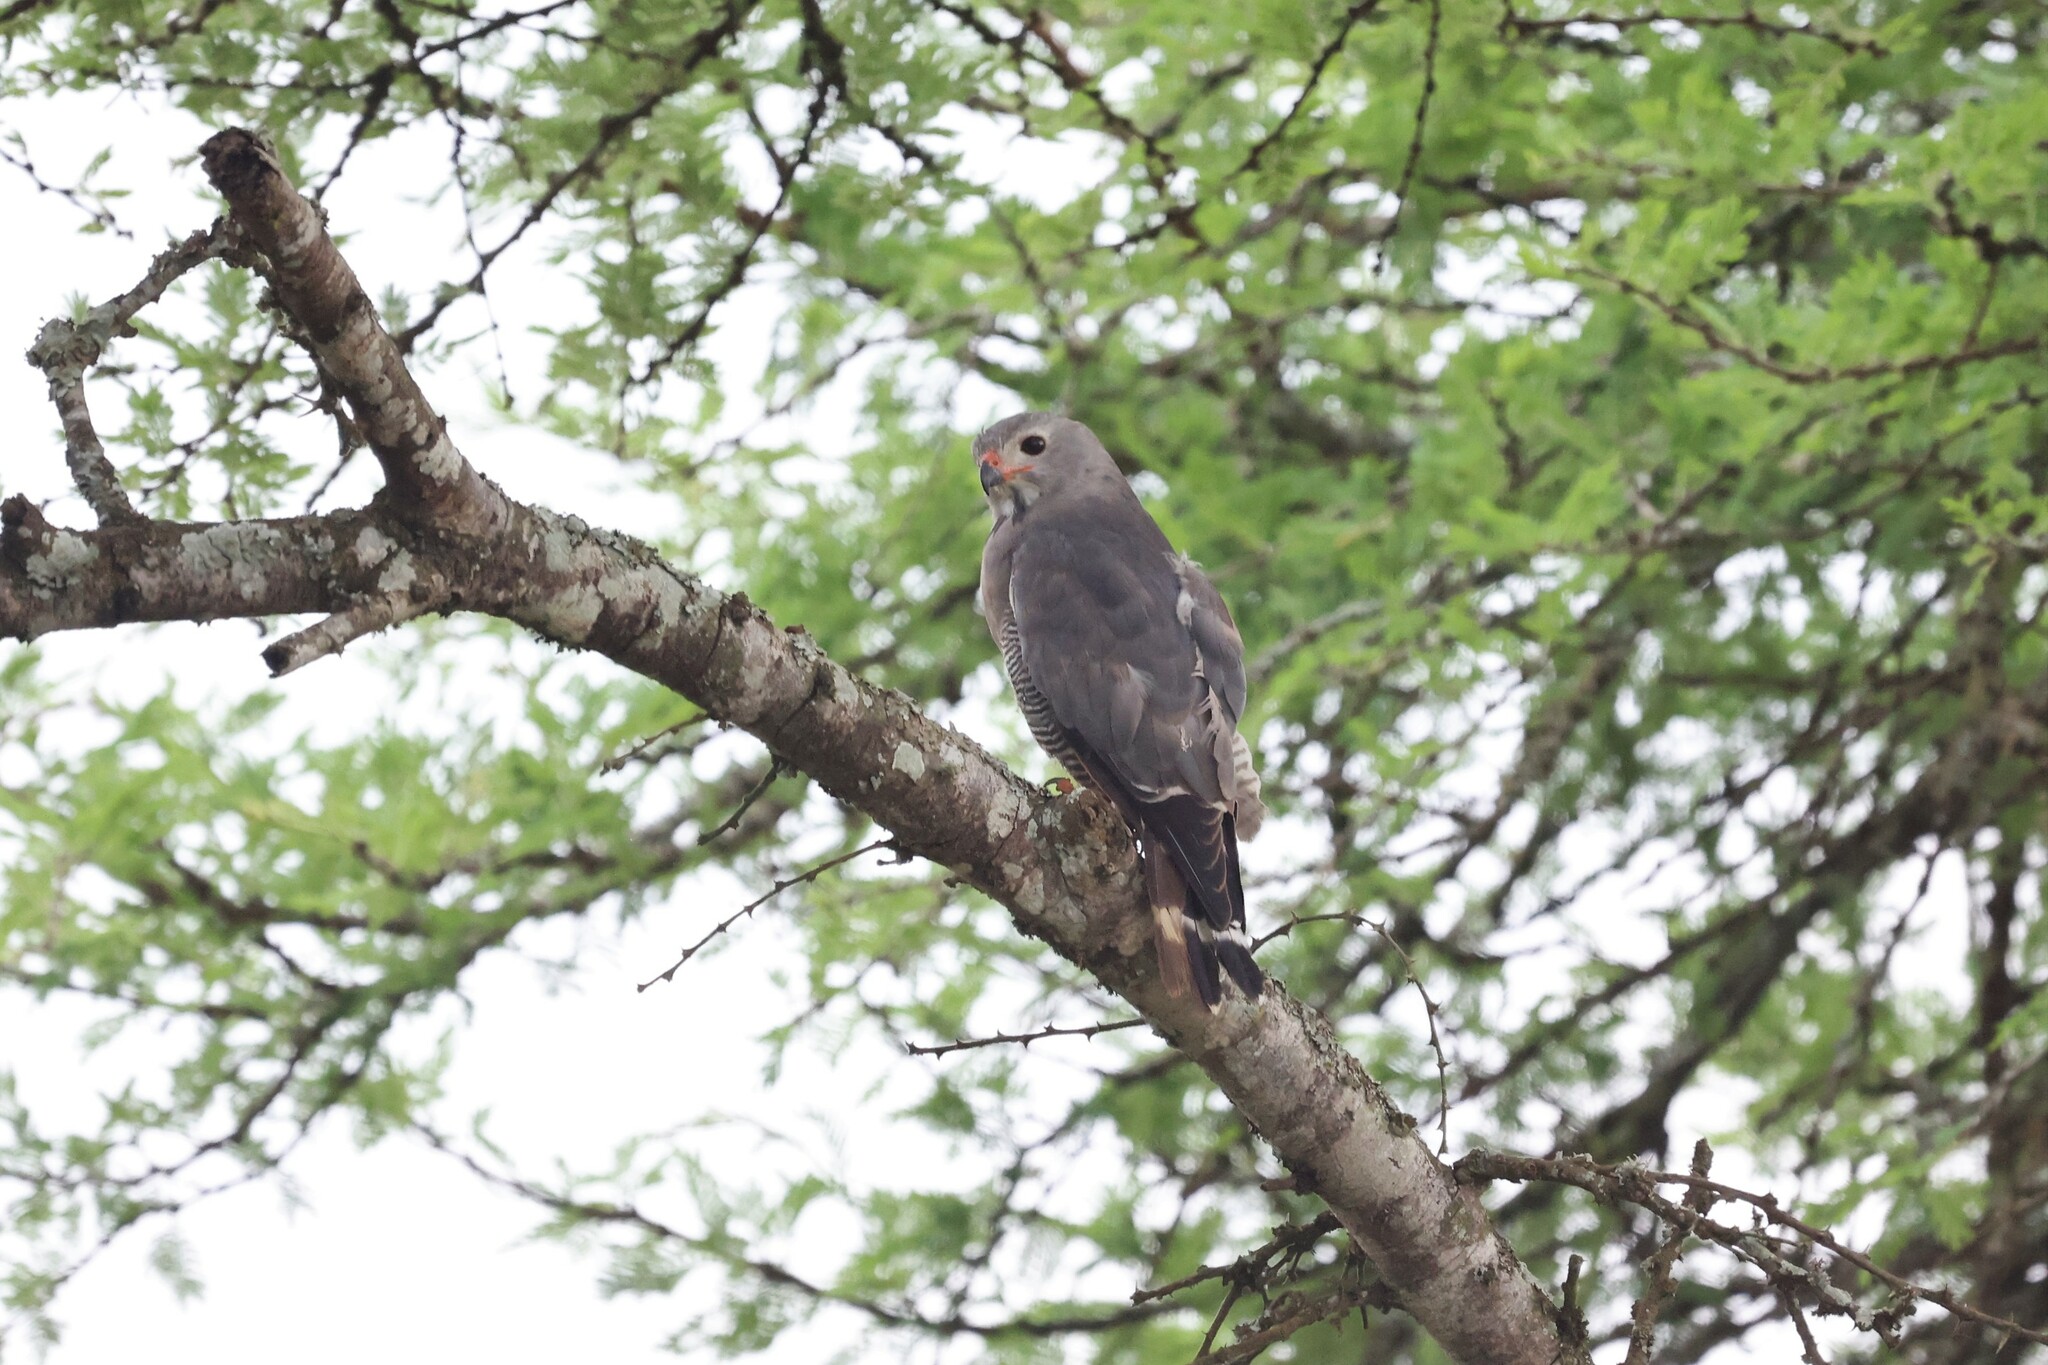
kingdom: Animalia
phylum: Chordata
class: Aves
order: Accipitriformes
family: Accipitridae
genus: Kaupifalco
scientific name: Kaupifalco monogrammicus
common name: Lizard buzzard
